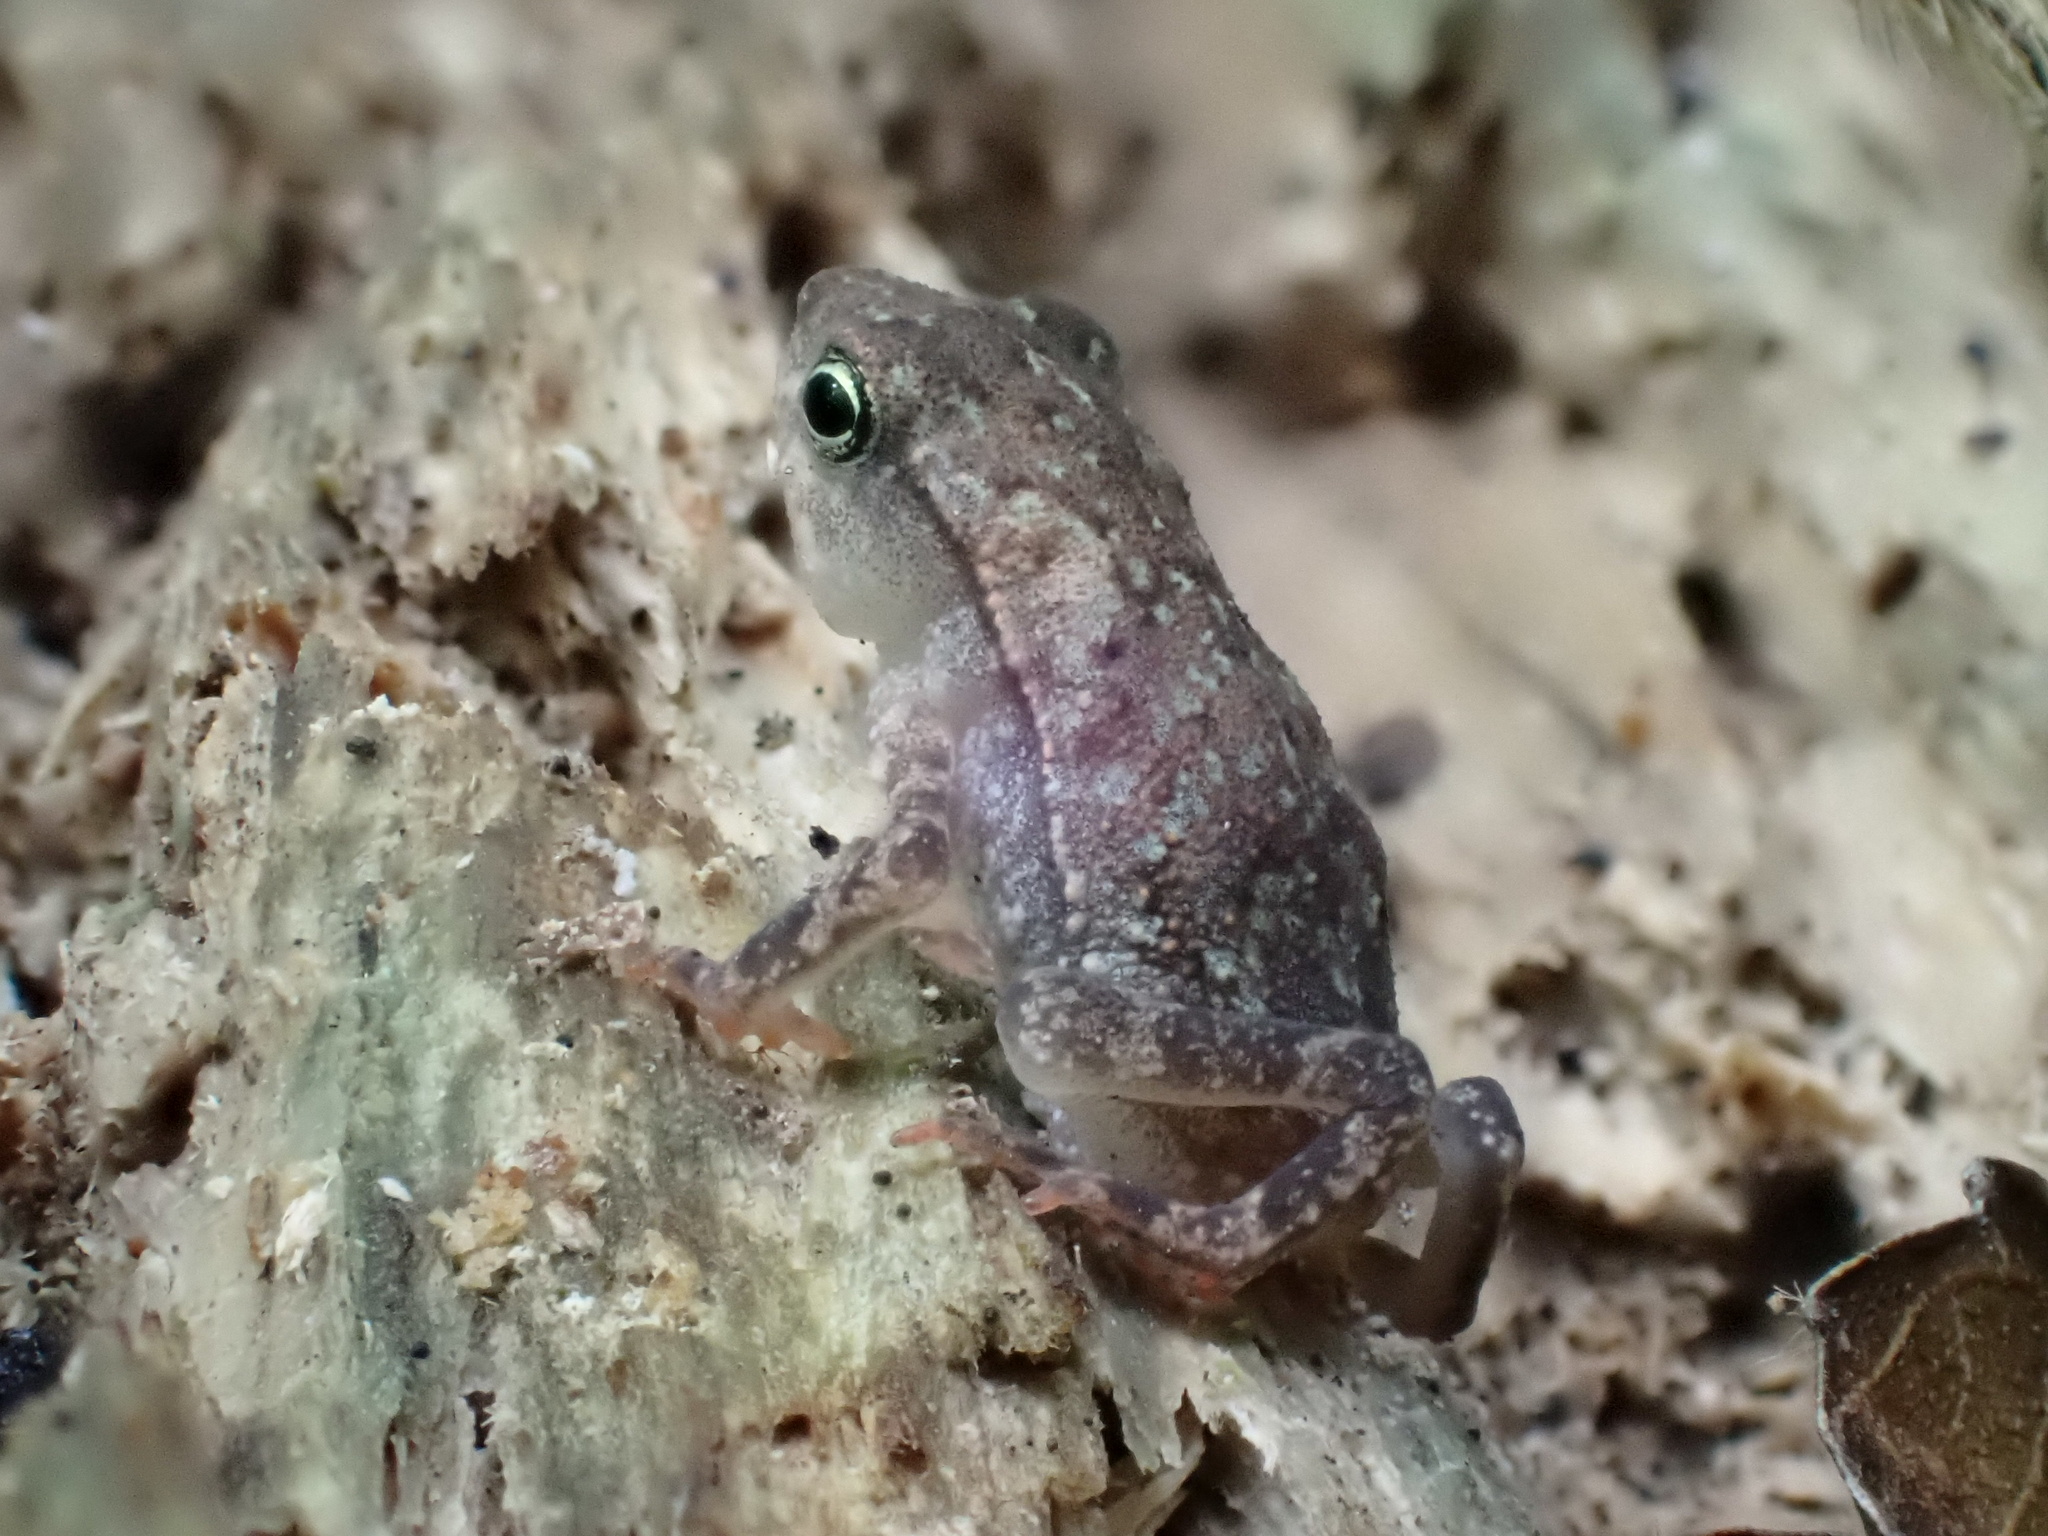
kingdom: Animalia
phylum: Chordata
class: Amphibia
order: Anura
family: Bufonidae
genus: Rhinella
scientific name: Rhinella alata
